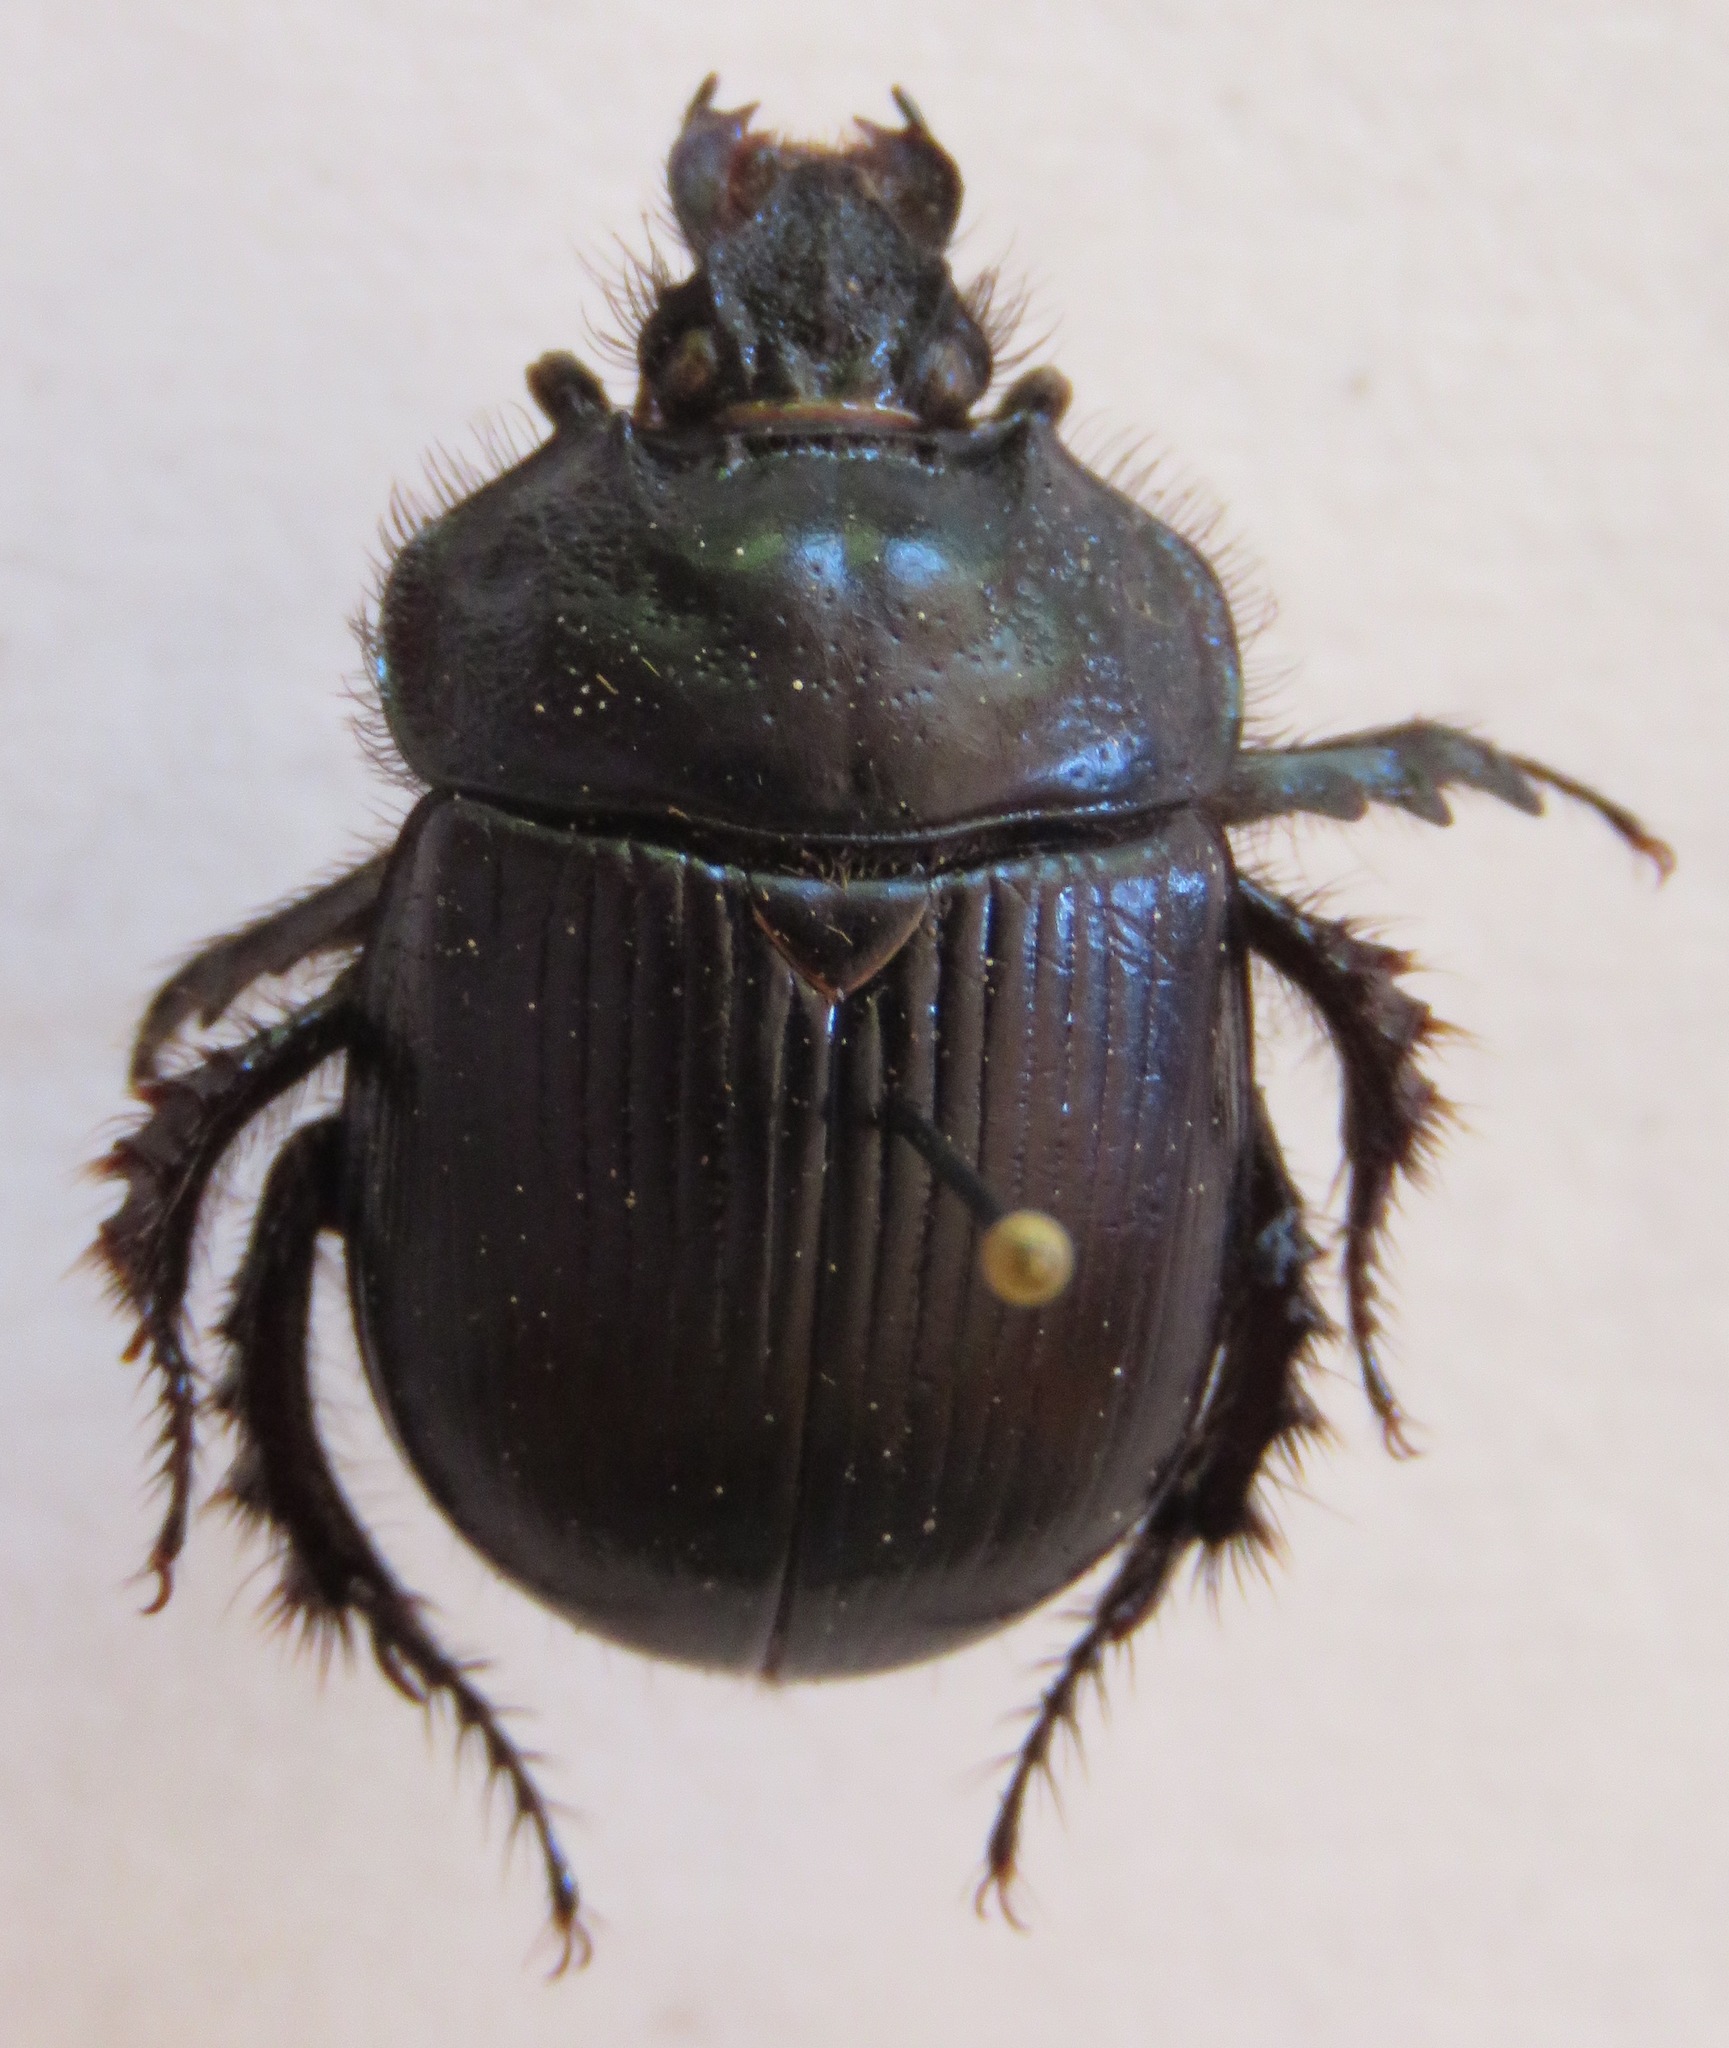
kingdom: Animalia
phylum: Arthropoda
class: Insecta
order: Coleoptera
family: Geotrupidae
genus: Typhaeus
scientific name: Typhaeus typhoeus
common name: Minotaur beetle
